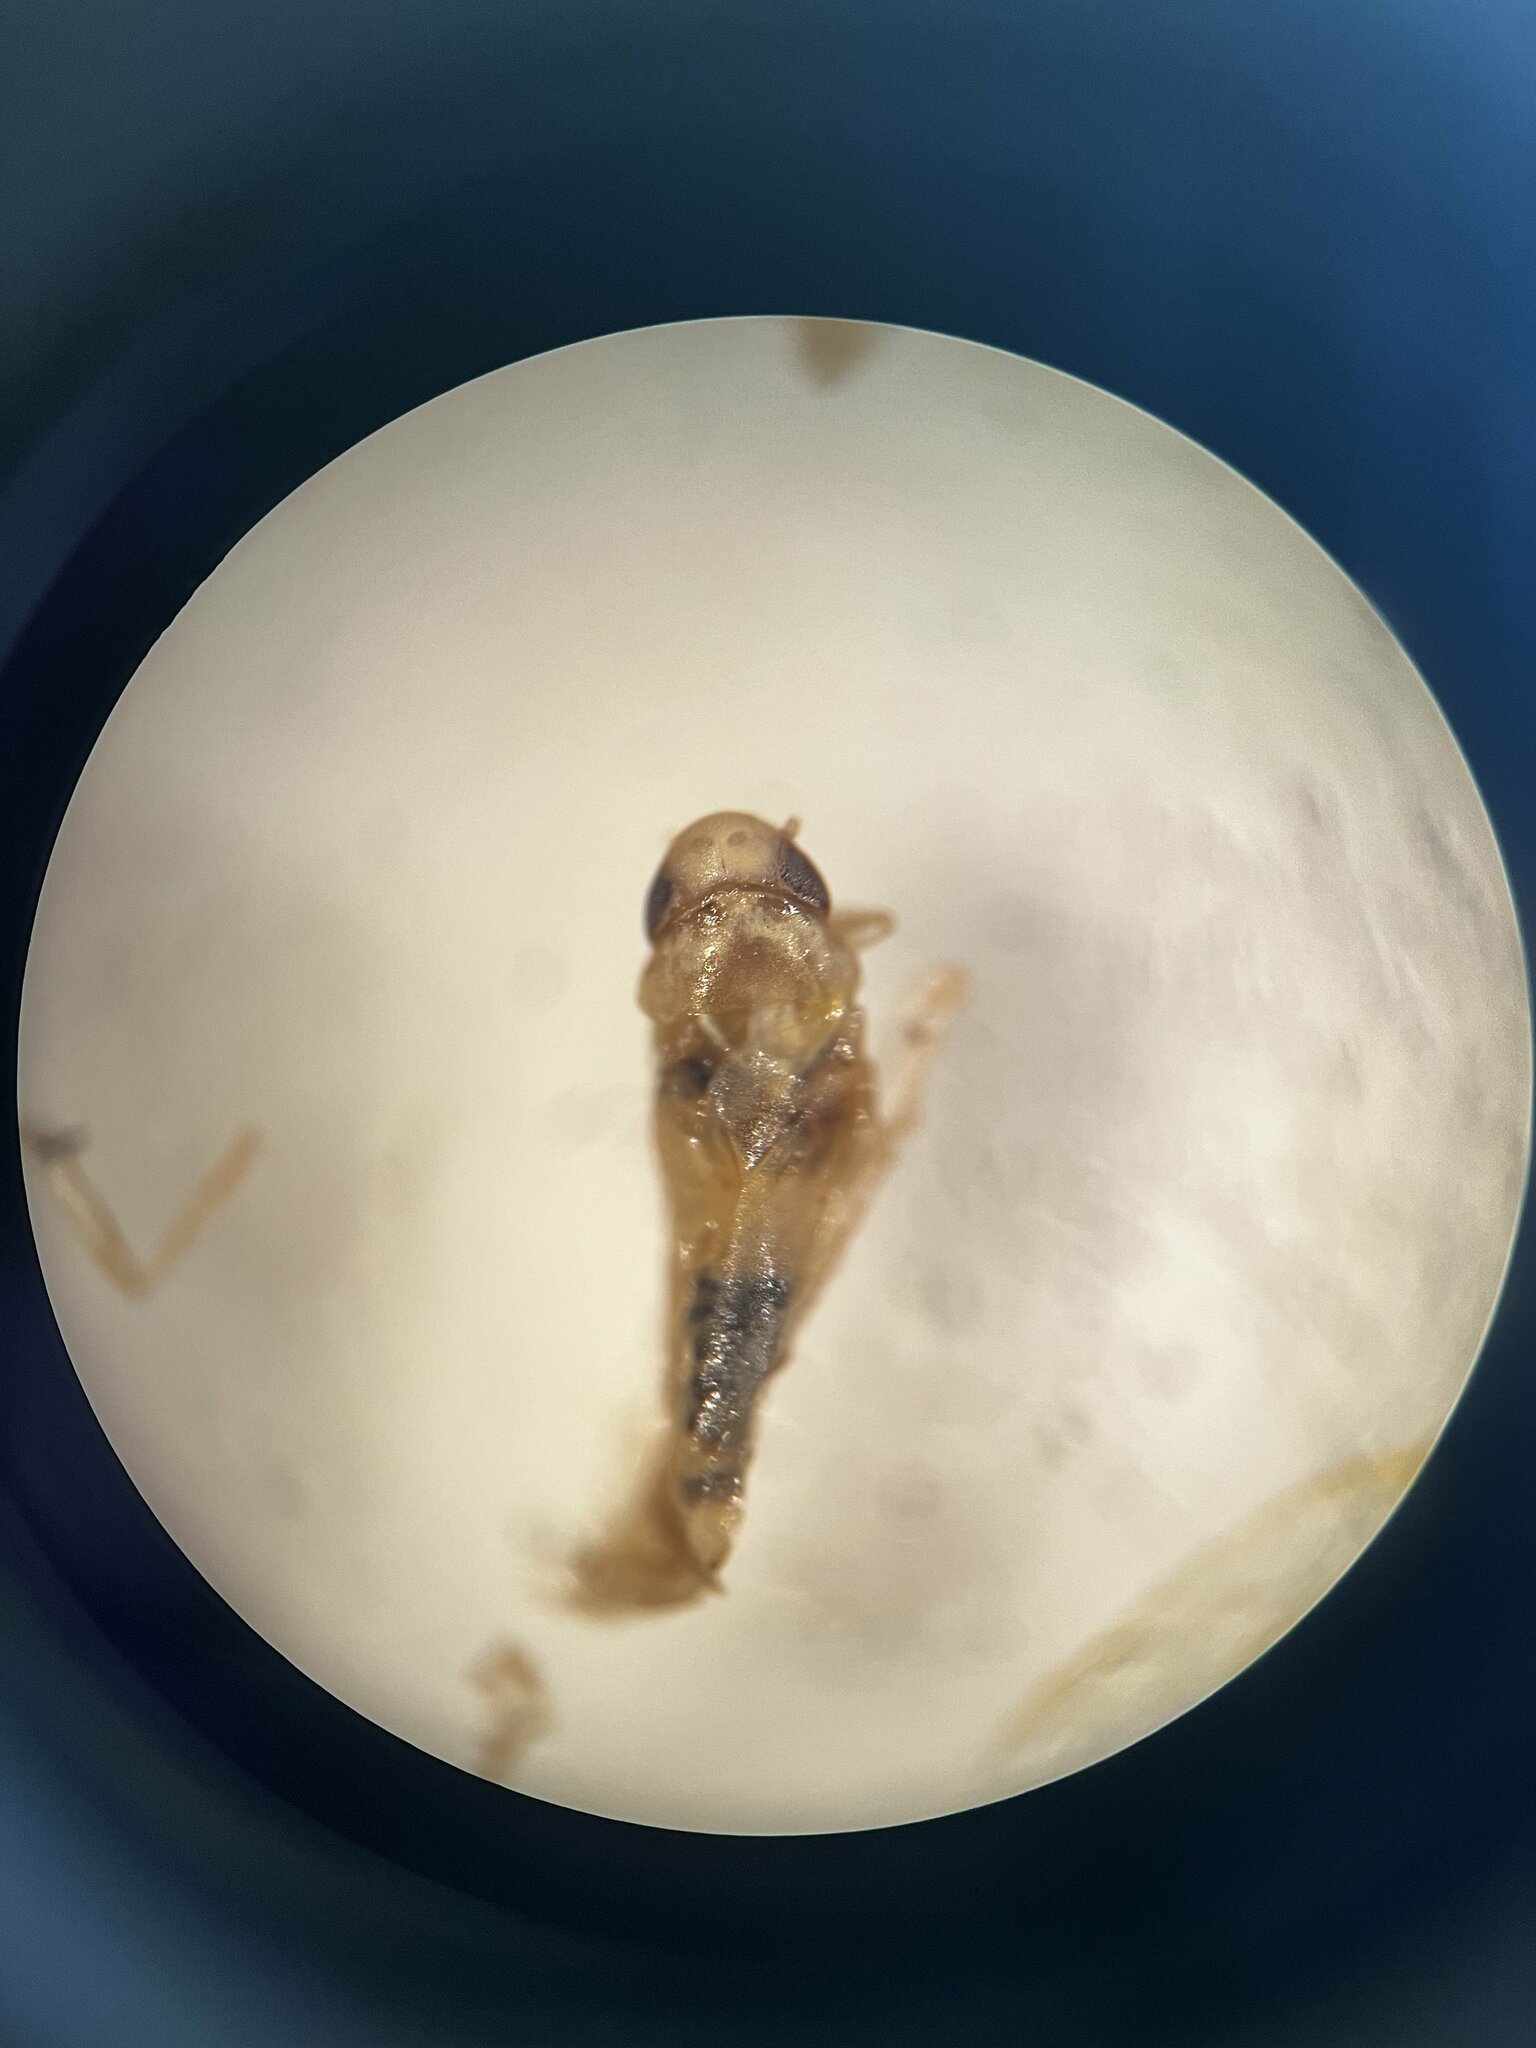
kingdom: Animalia
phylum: Arthropoda
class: Insecta
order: Hemiptera
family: Cicadellidae
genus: Ribautiana
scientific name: Ribautiana tenerrima
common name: Bramble leafhopper
